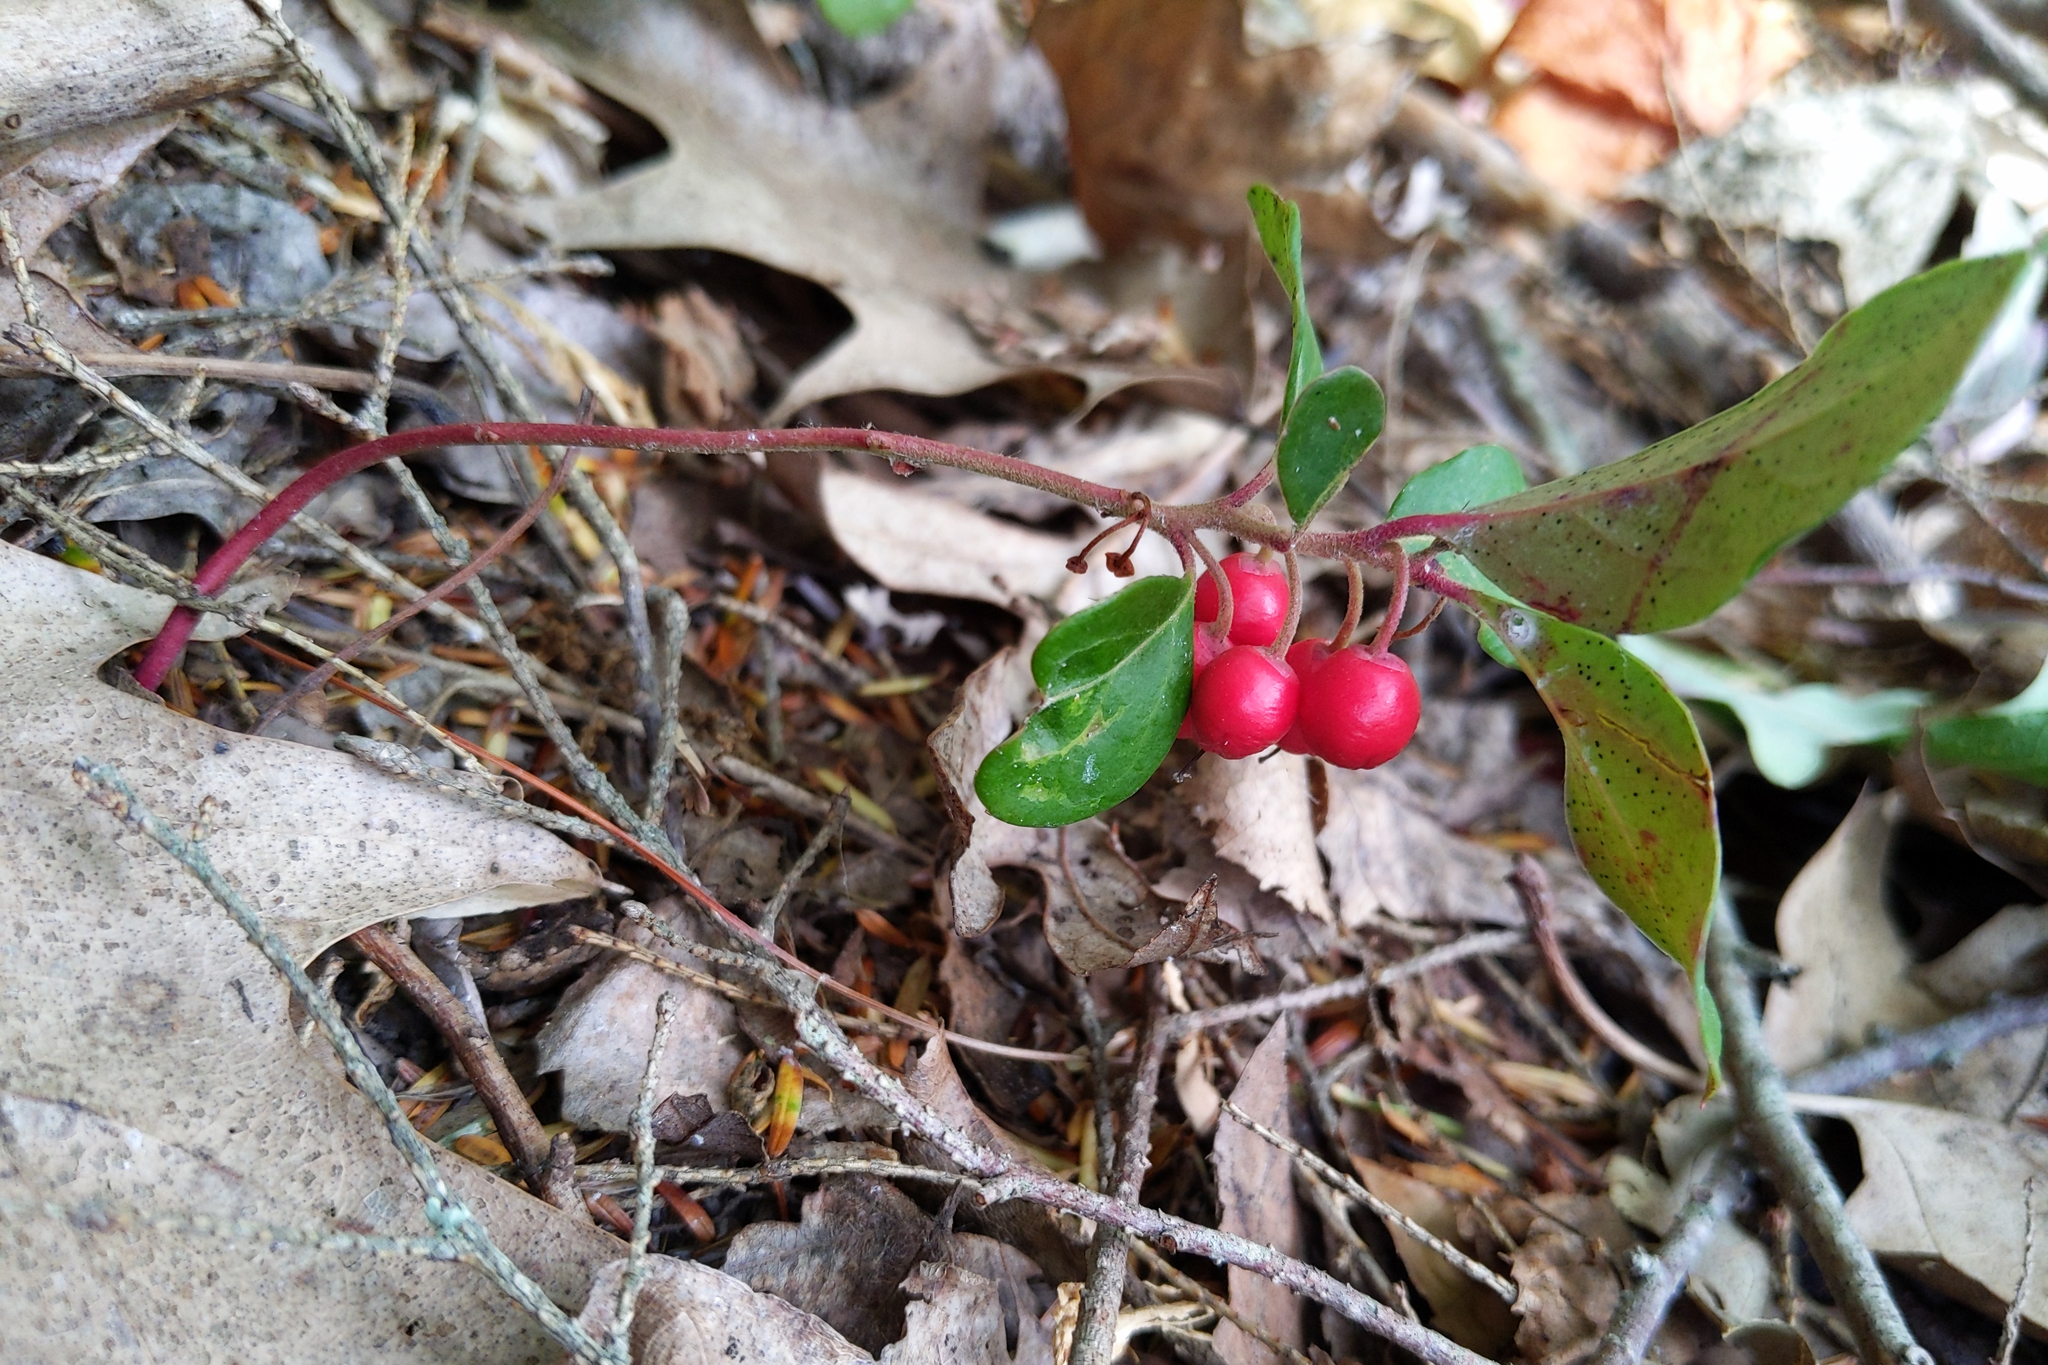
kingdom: Plantae
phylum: Tracheophyta
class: Magnoliopsida
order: Ericales
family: Ericaceae
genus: Gaultheria
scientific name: Gaultheria procumbens
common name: Checkerberry
